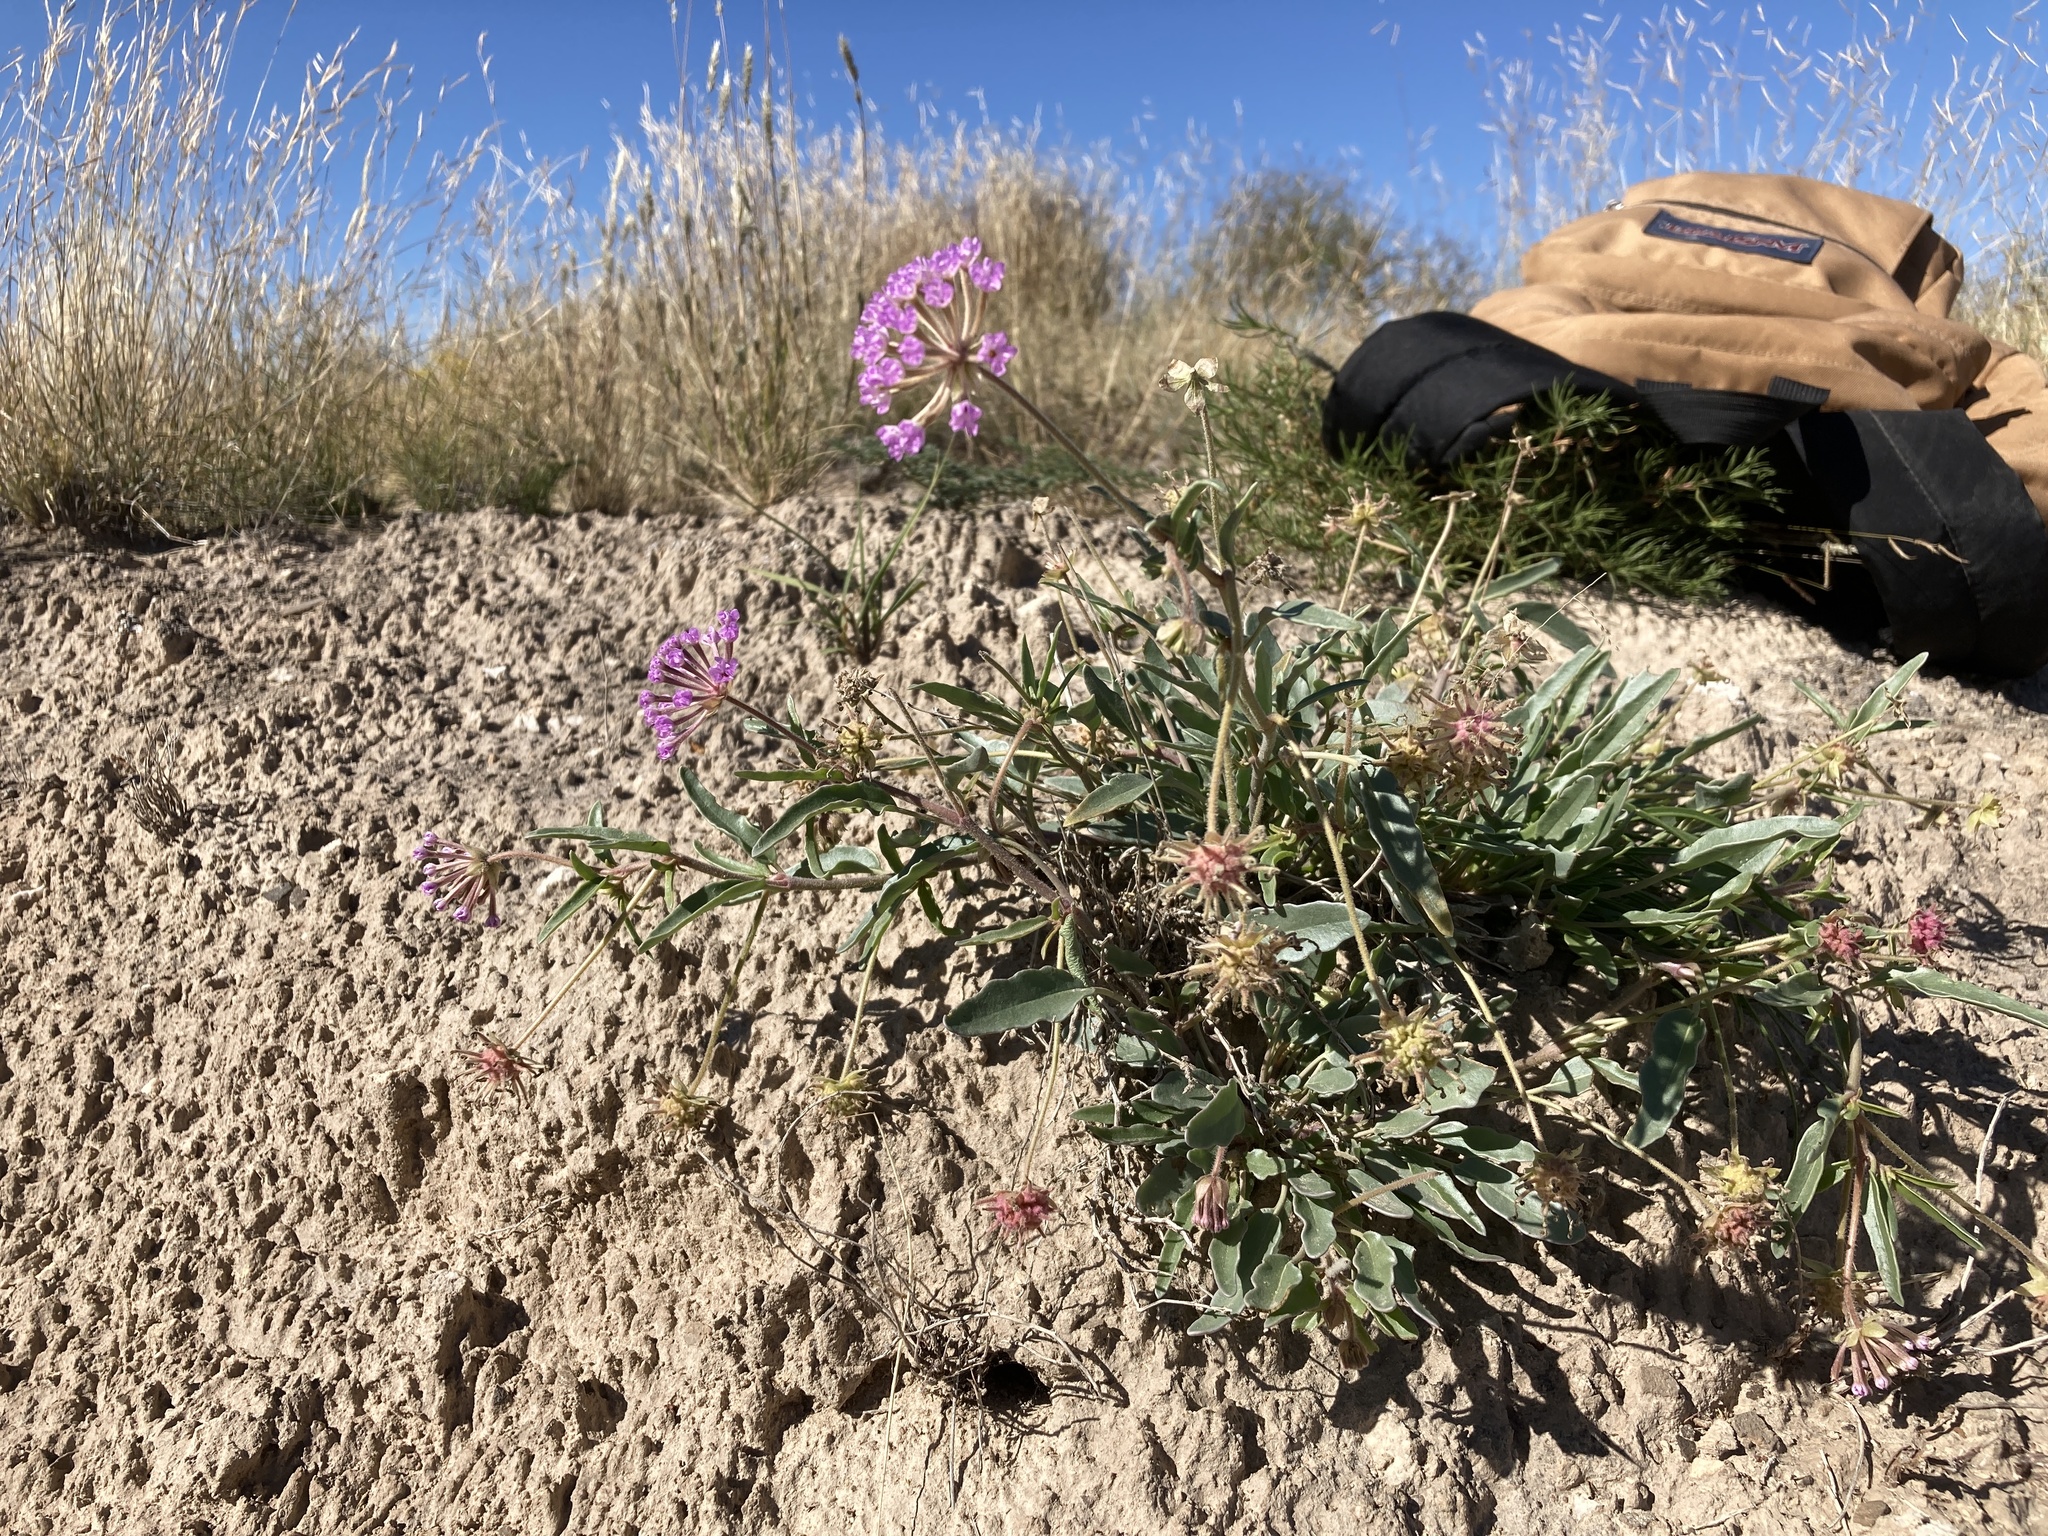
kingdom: Plantae
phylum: Tracheophyta
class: Magnoliopsida
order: Caryophyllales
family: Nyctaginaceae
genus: Abronia
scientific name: Abronia carletonii
